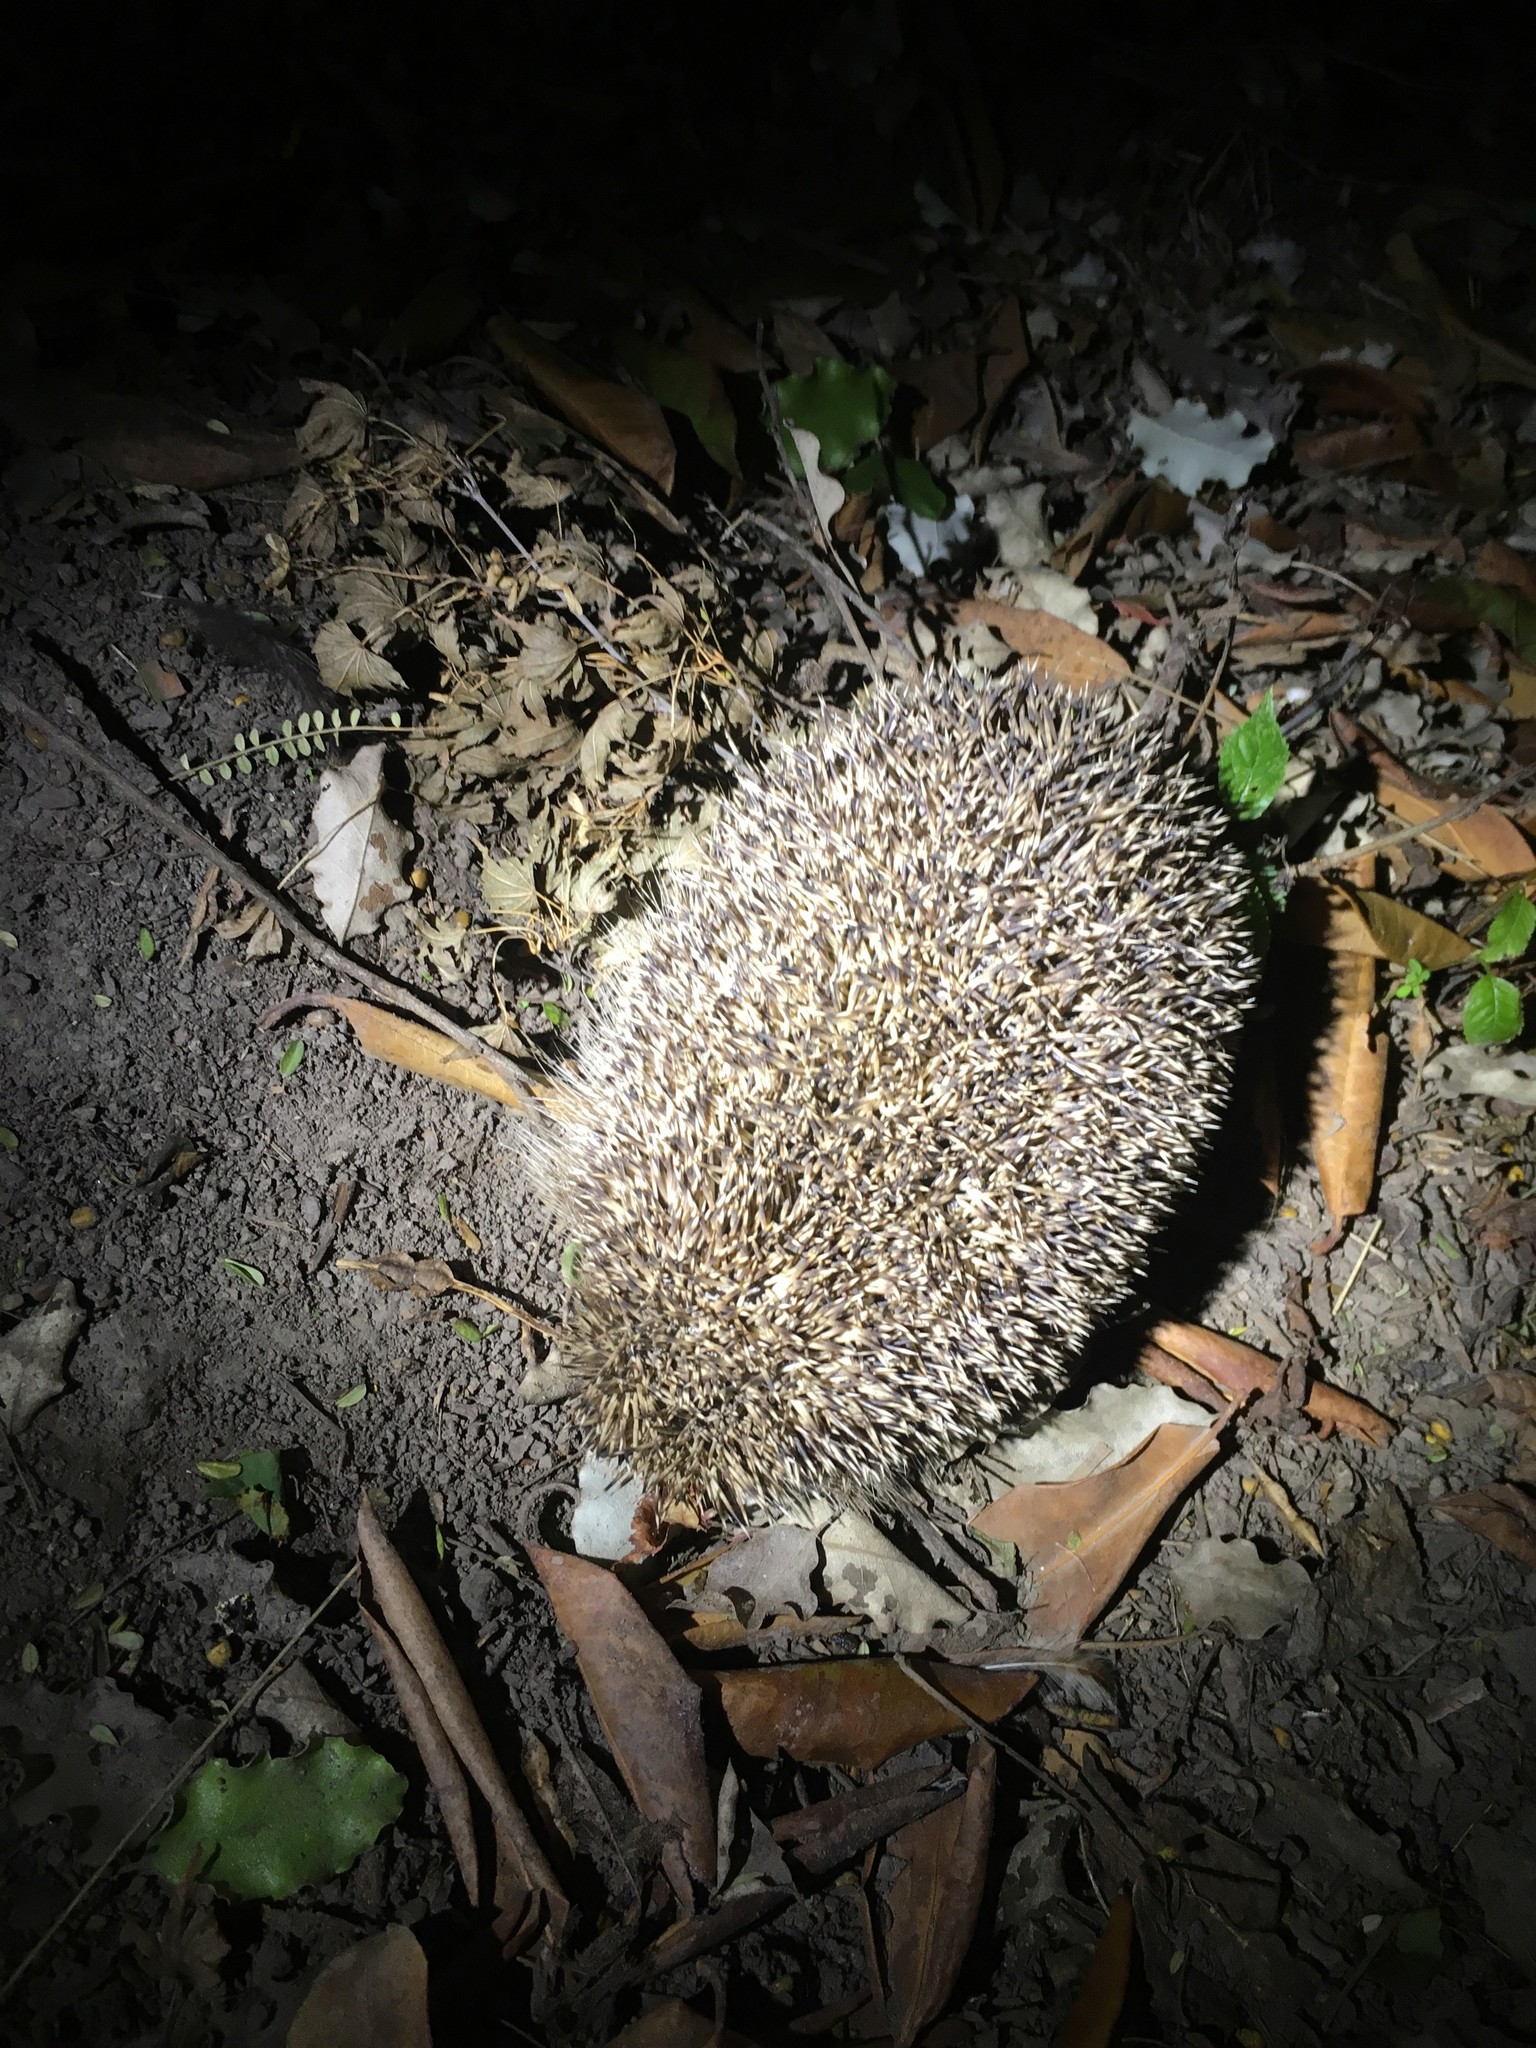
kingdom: Animalia
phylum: Chordata
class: Mammalia
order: Erinaceomorpha
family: Erinaceidae
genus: Erinaceus
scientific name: Erinaceus europaeus
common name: West european hedgehog
